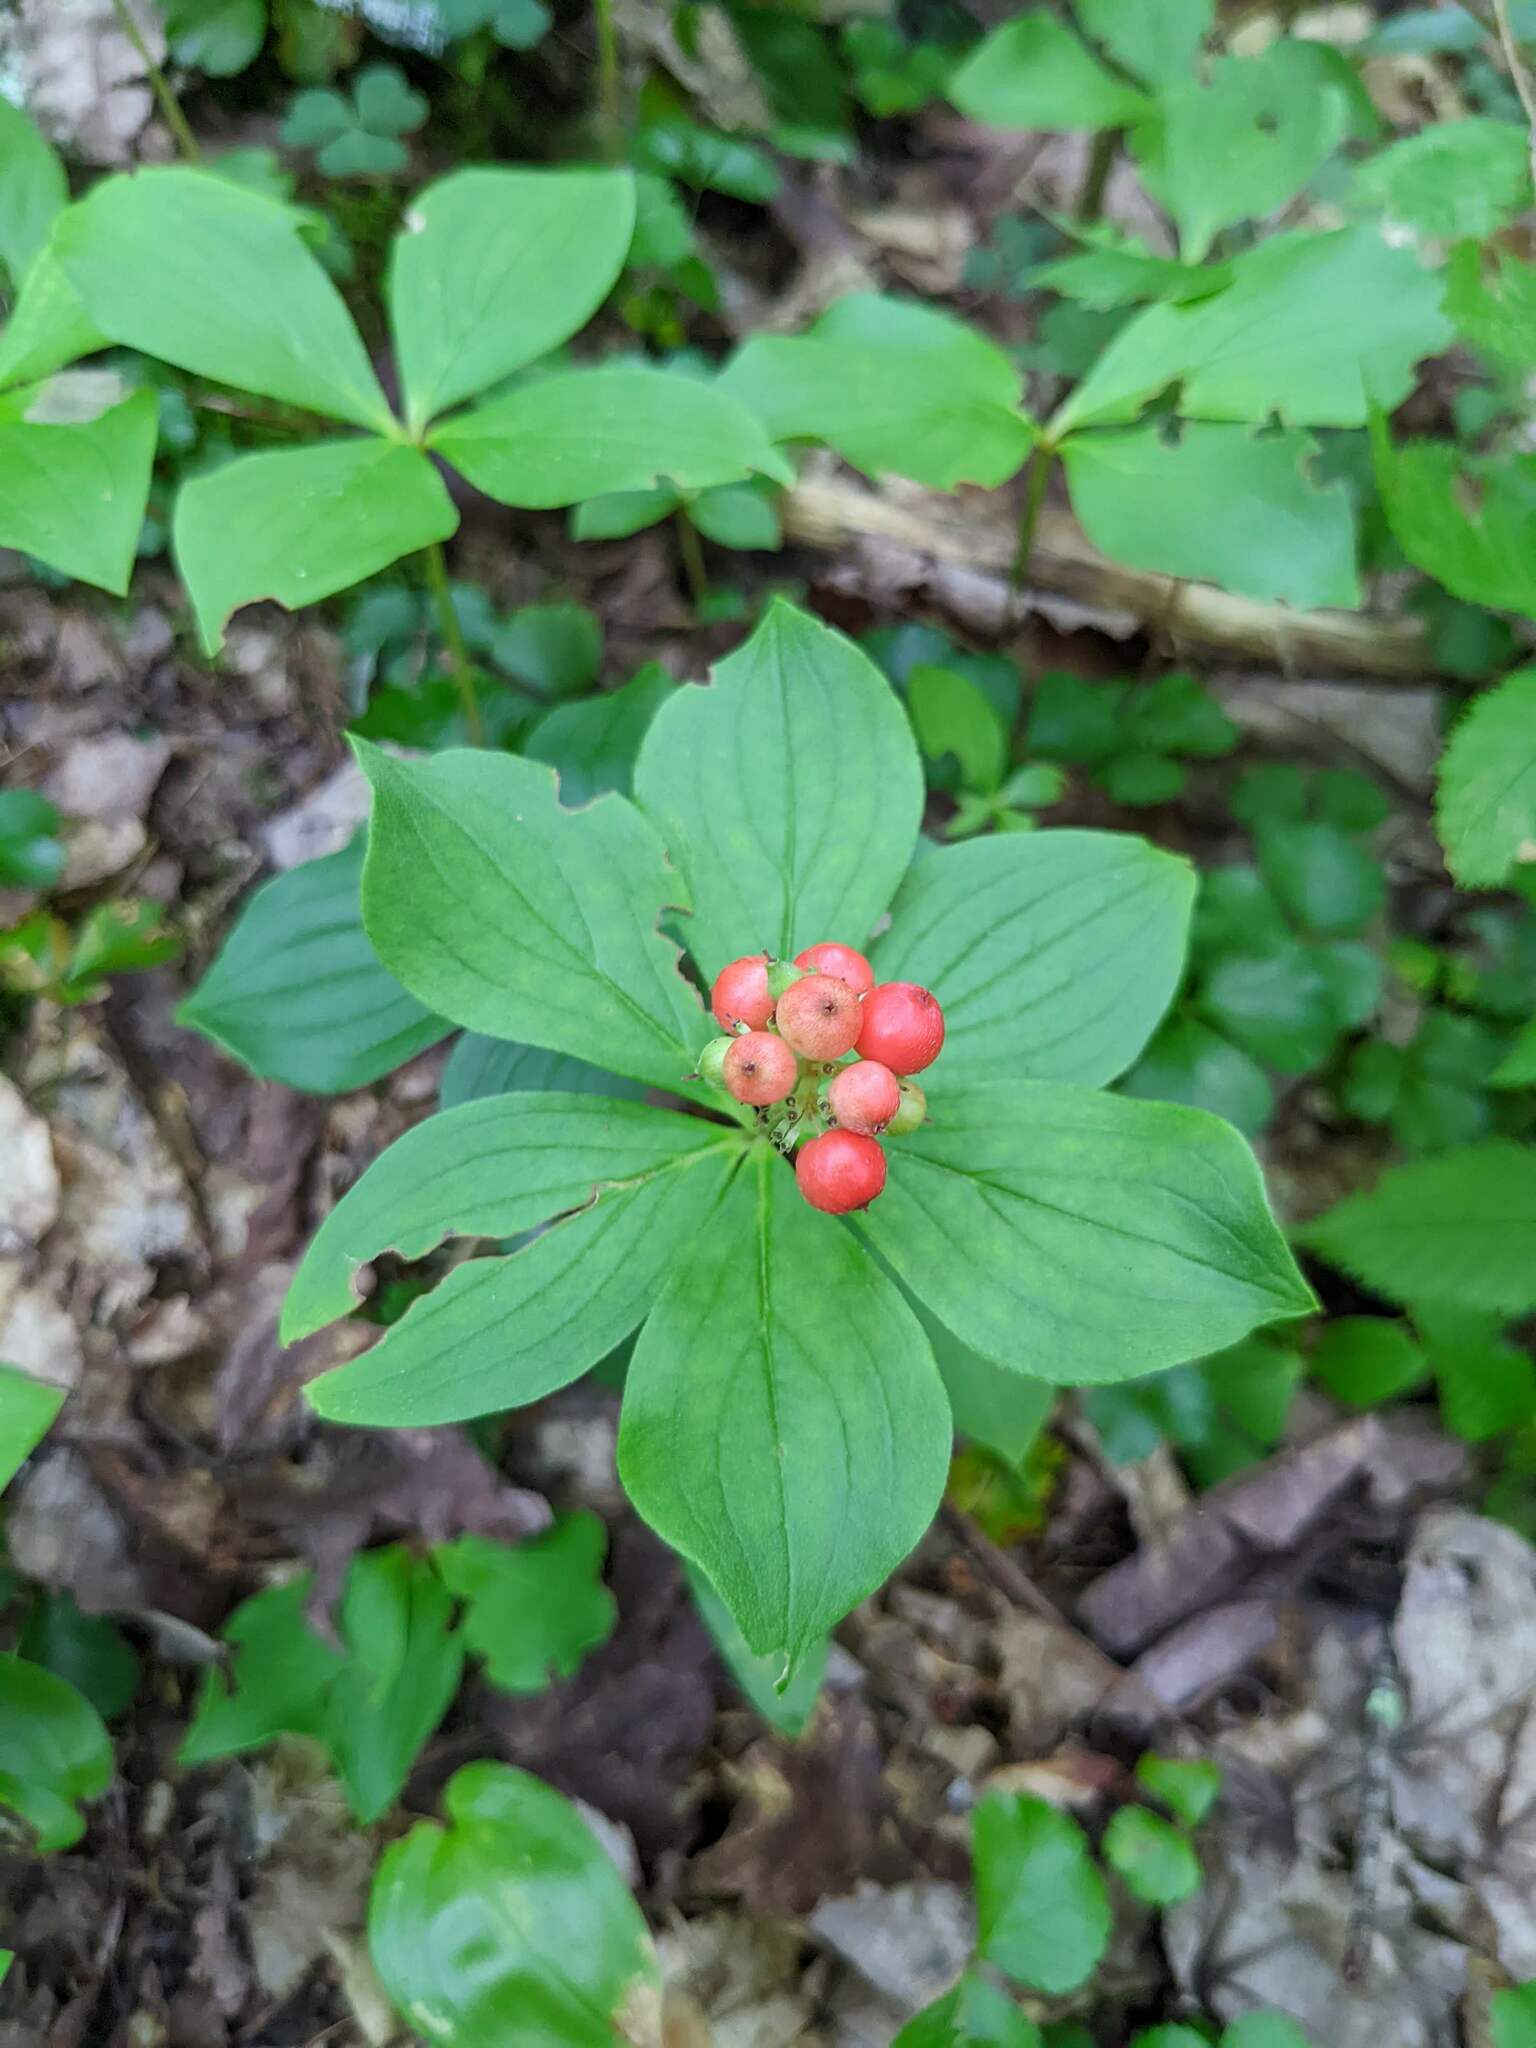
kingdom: Plantae
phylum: Tracheophyta
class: Magnoliopsida
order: Cornales
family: Cornaceae
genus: Cornus
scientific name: Cornus canadensis
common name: Creeping dogwood
